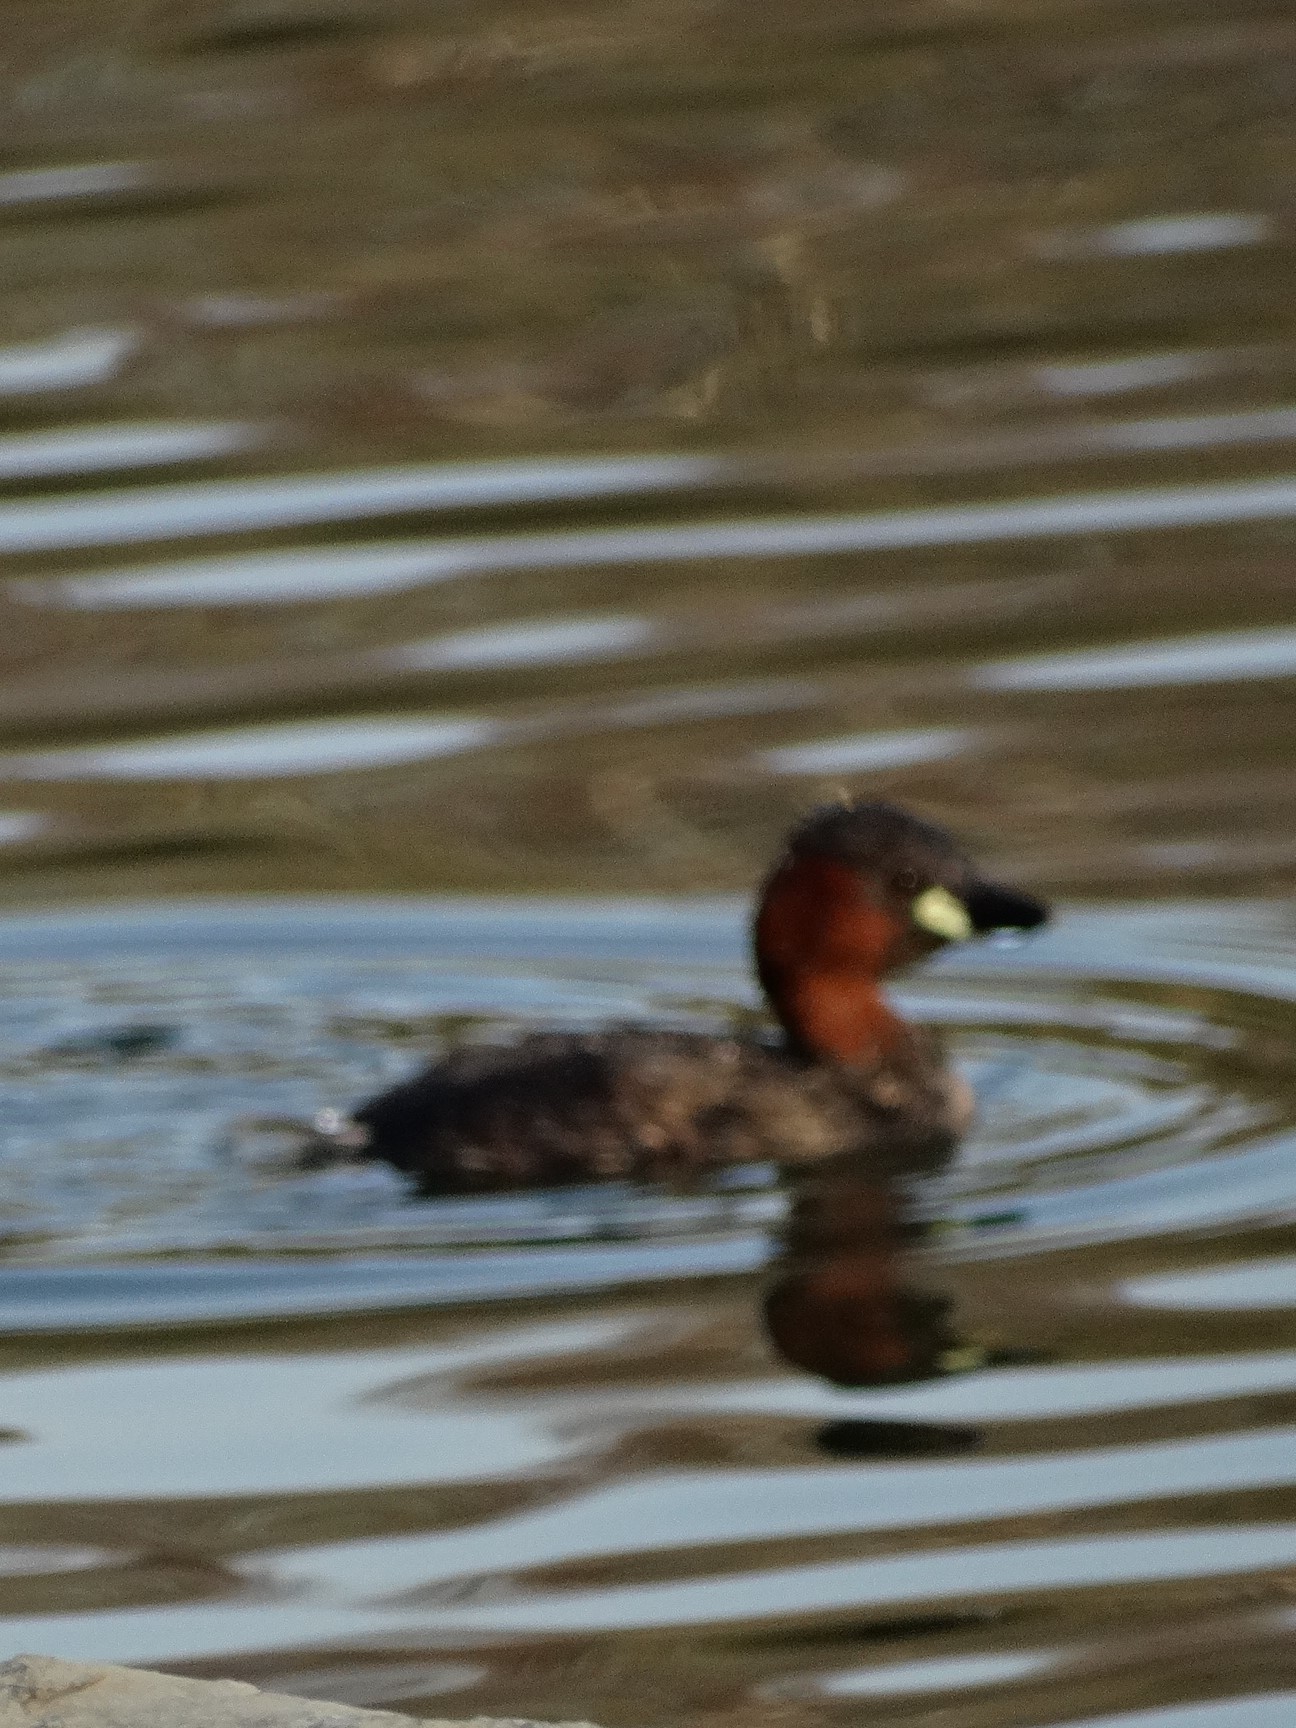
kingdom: Animalia
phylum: Chordata
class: Aves
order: Podicipediformes
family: Podicipedidae
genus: Tachybaptus
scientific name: Tachybaptus ruficollis
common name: Little grebe
